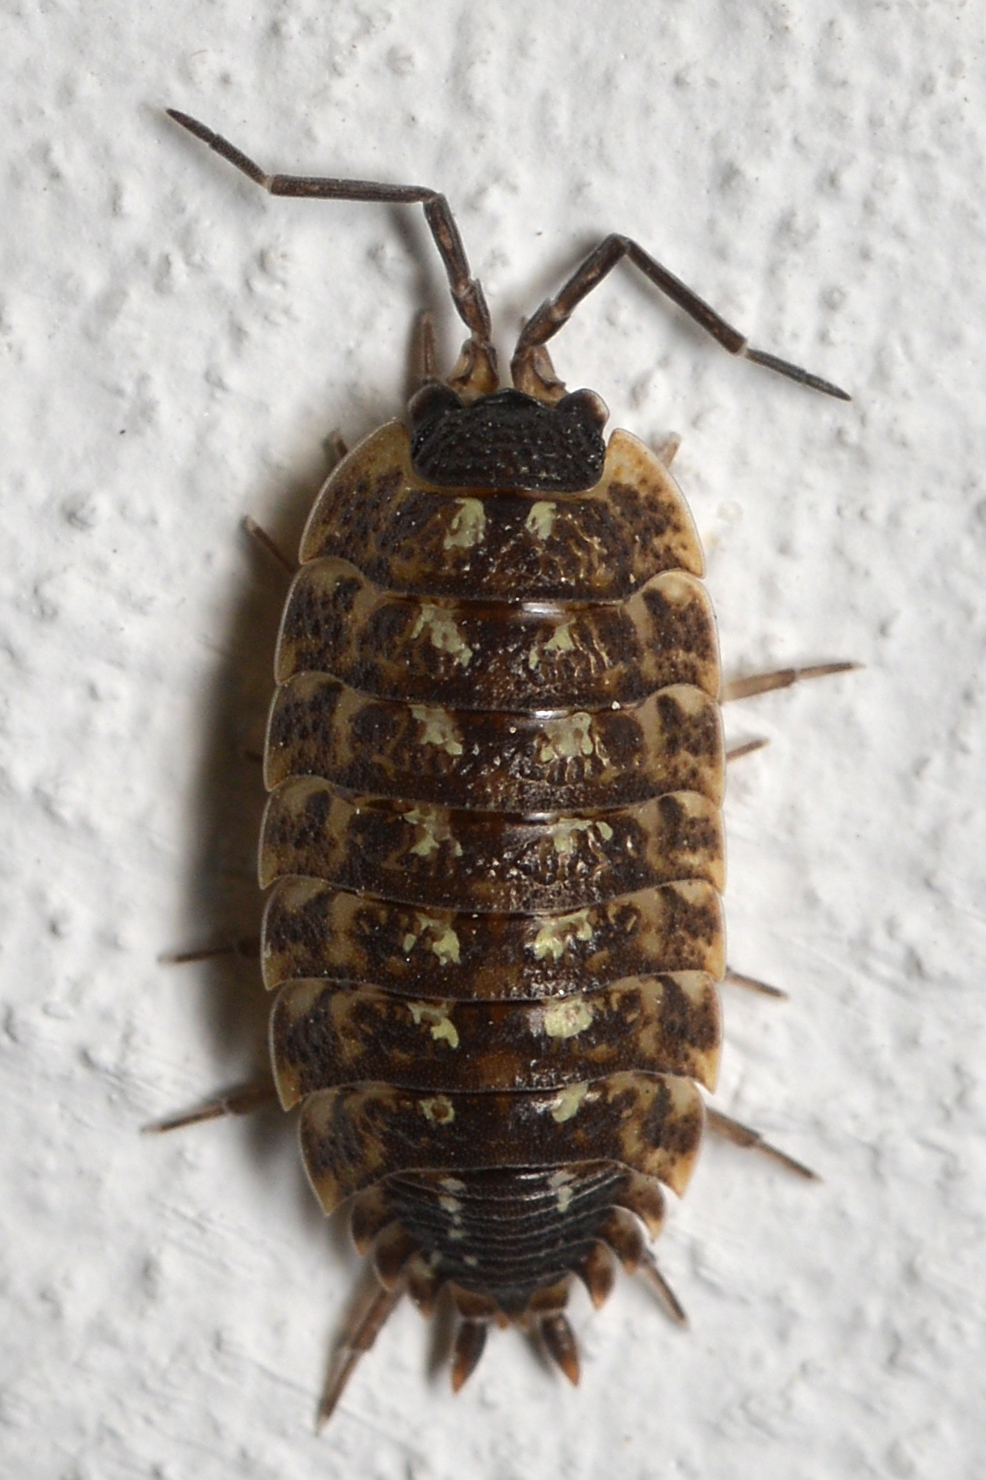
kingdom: Animalia
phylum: Arthropoda
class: Malacostraca
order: Isopoda
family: Porcellionidae
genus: Porcellio
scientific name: Porcellio spinicornis
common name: Painted woodlouse
